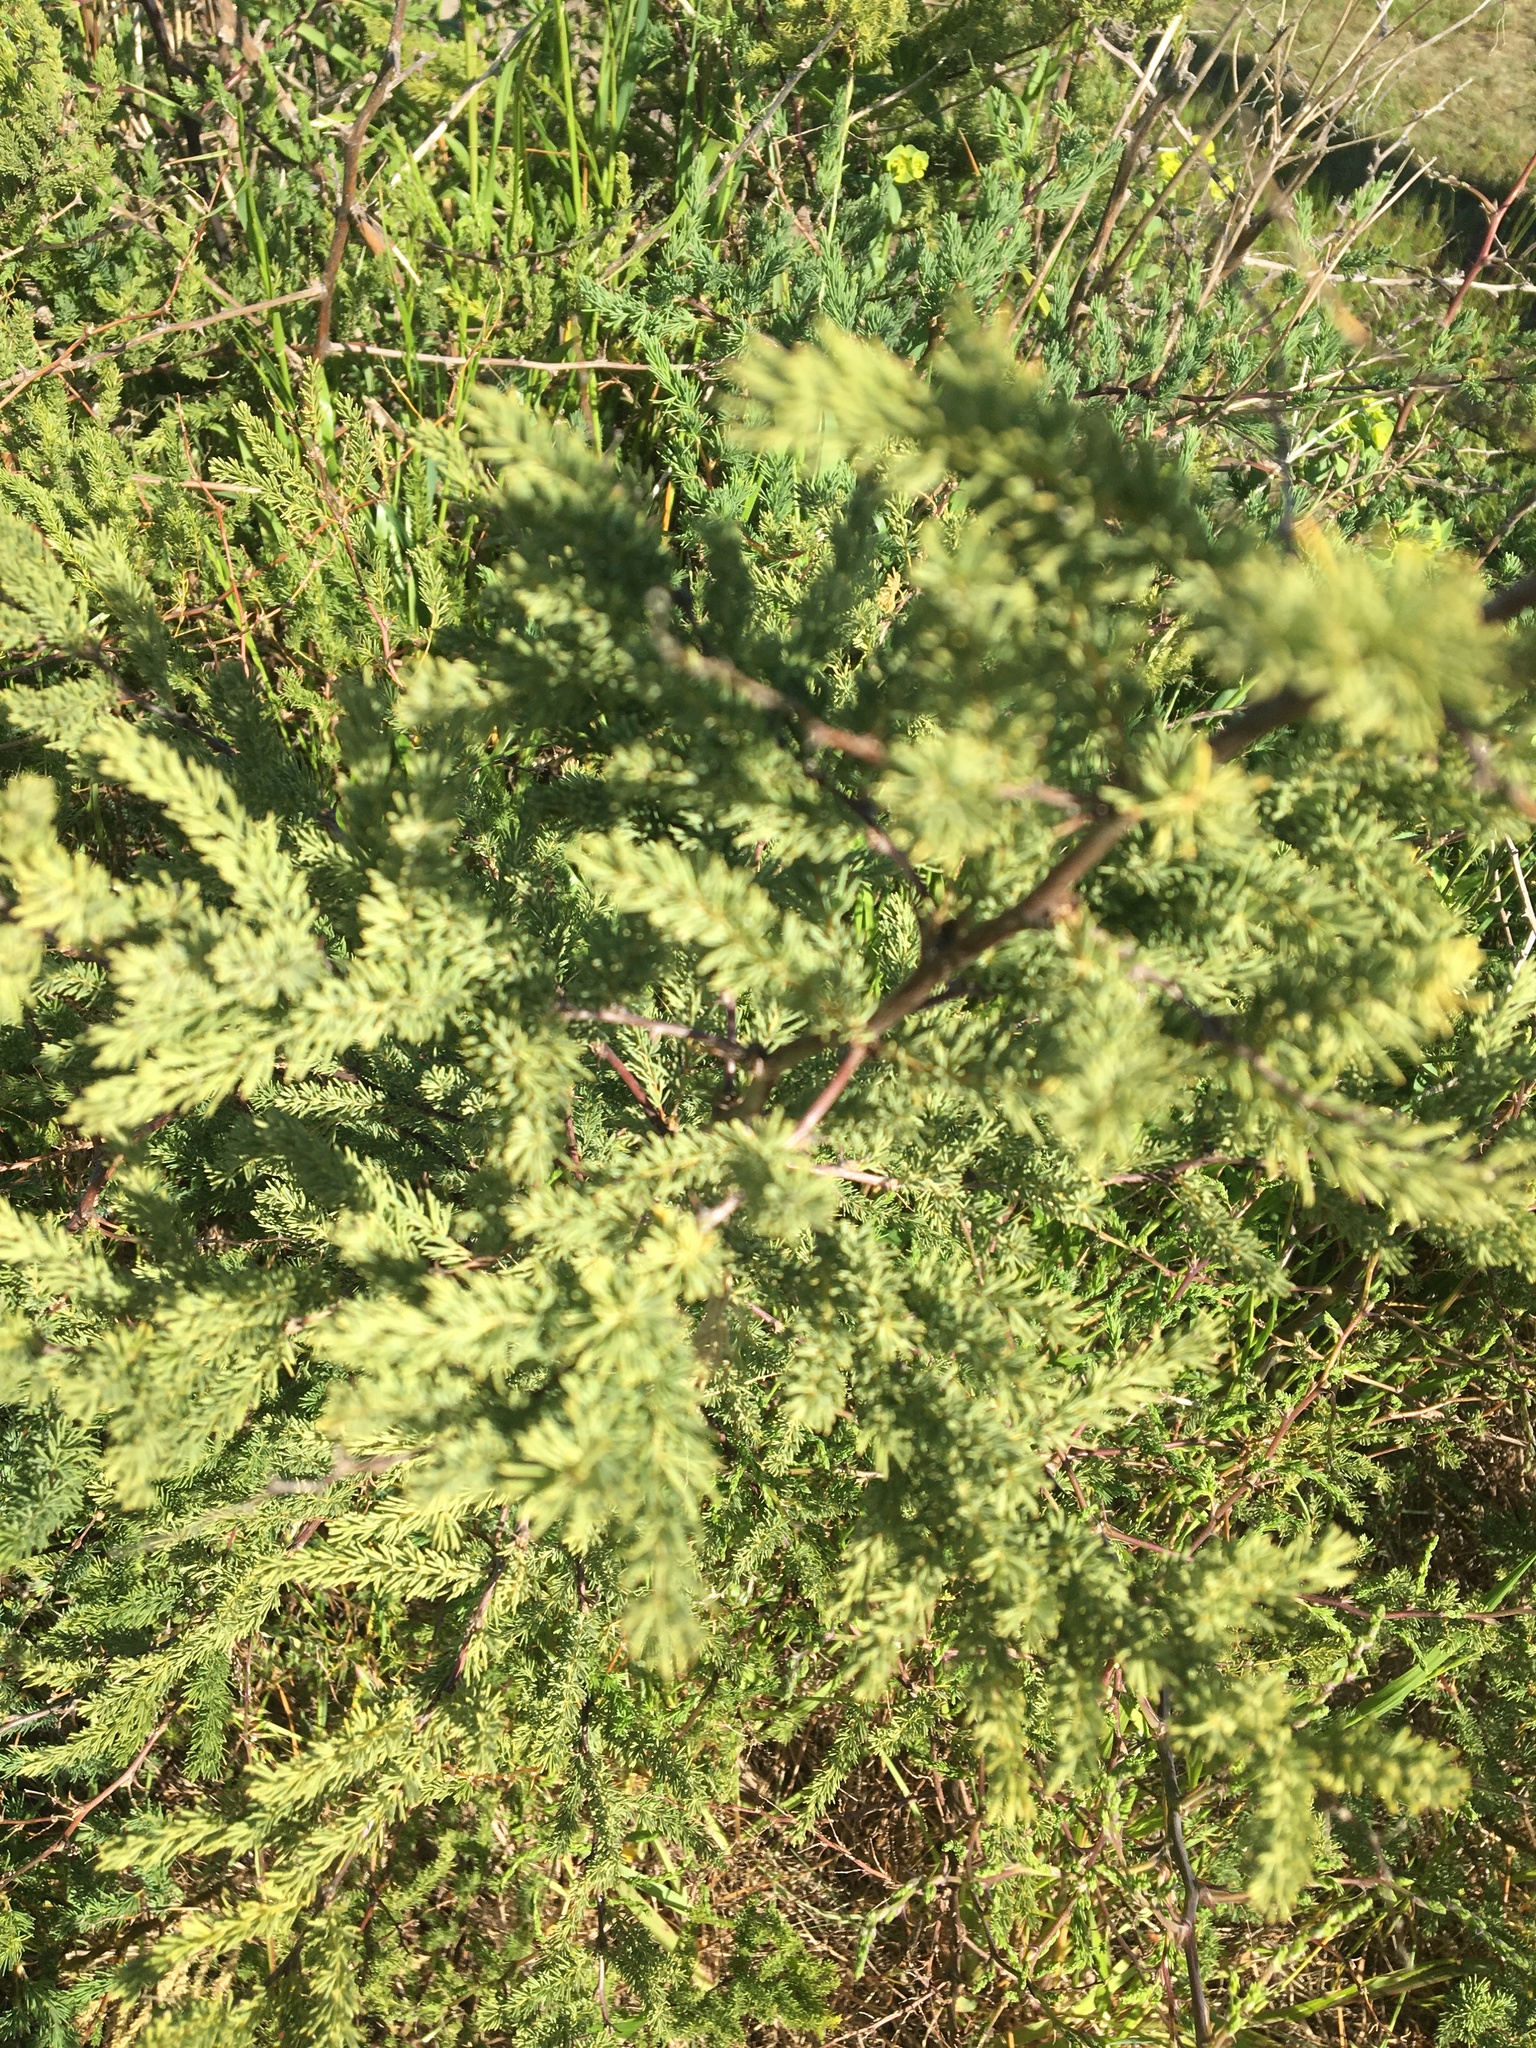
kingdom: Plantae
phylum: Tracheophyta
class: Liliopsida
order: Asparagales
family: Asparagaceae
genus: Asparagus
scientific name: Asparagus rubicundus
